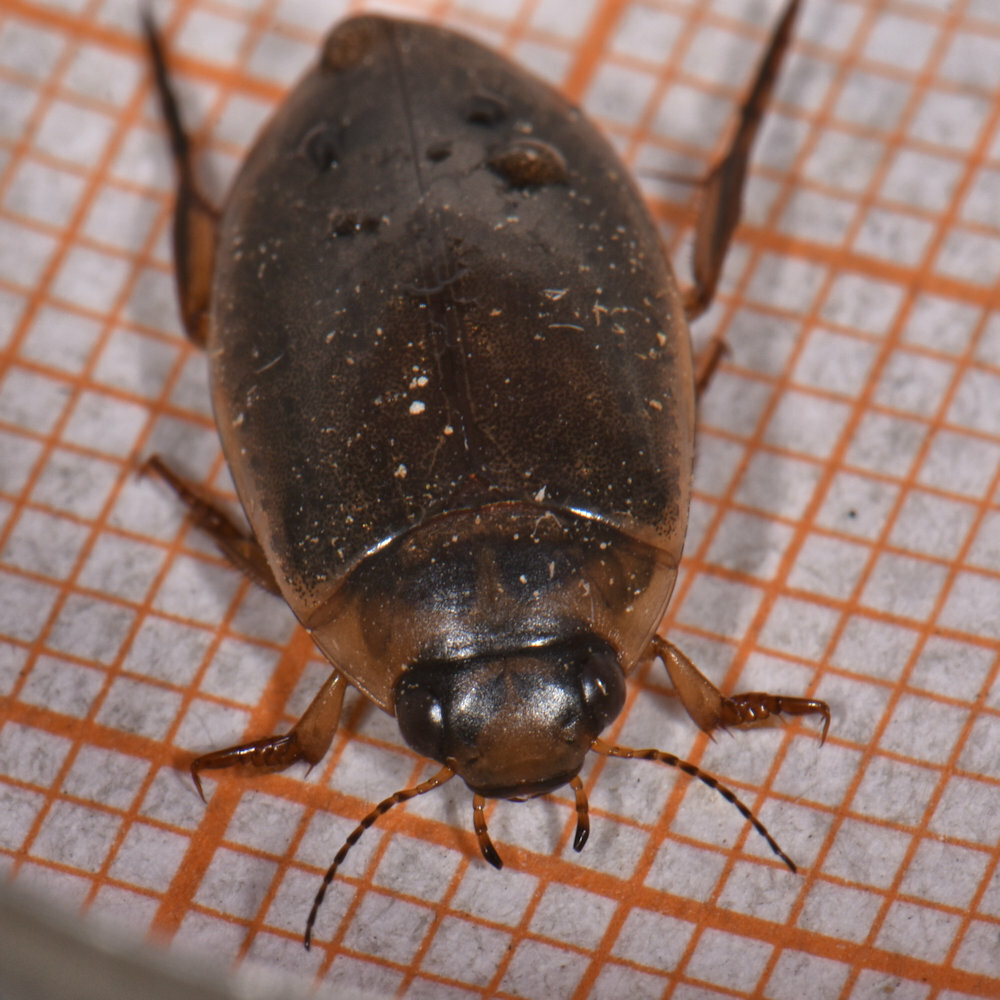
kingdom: Animalia
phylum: Arthropoda
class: Insecta
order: Coleoptera
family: Dytiscidae
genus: Rhantus
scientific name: Rhantus binotatus
